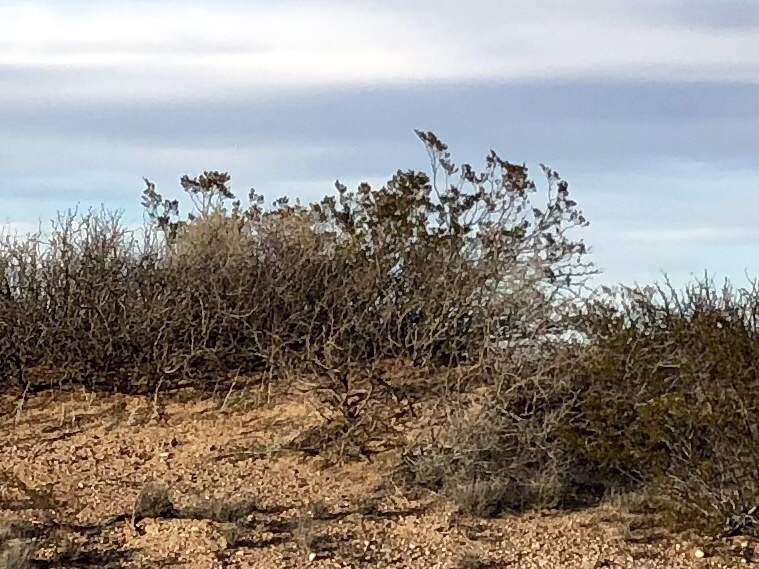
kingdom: Plantae
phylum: Tracheophyta
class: Magnoliopsida
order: Zygophyllales
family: Zygophyllaceae
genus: Larrea
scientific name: Larrea tridentata
